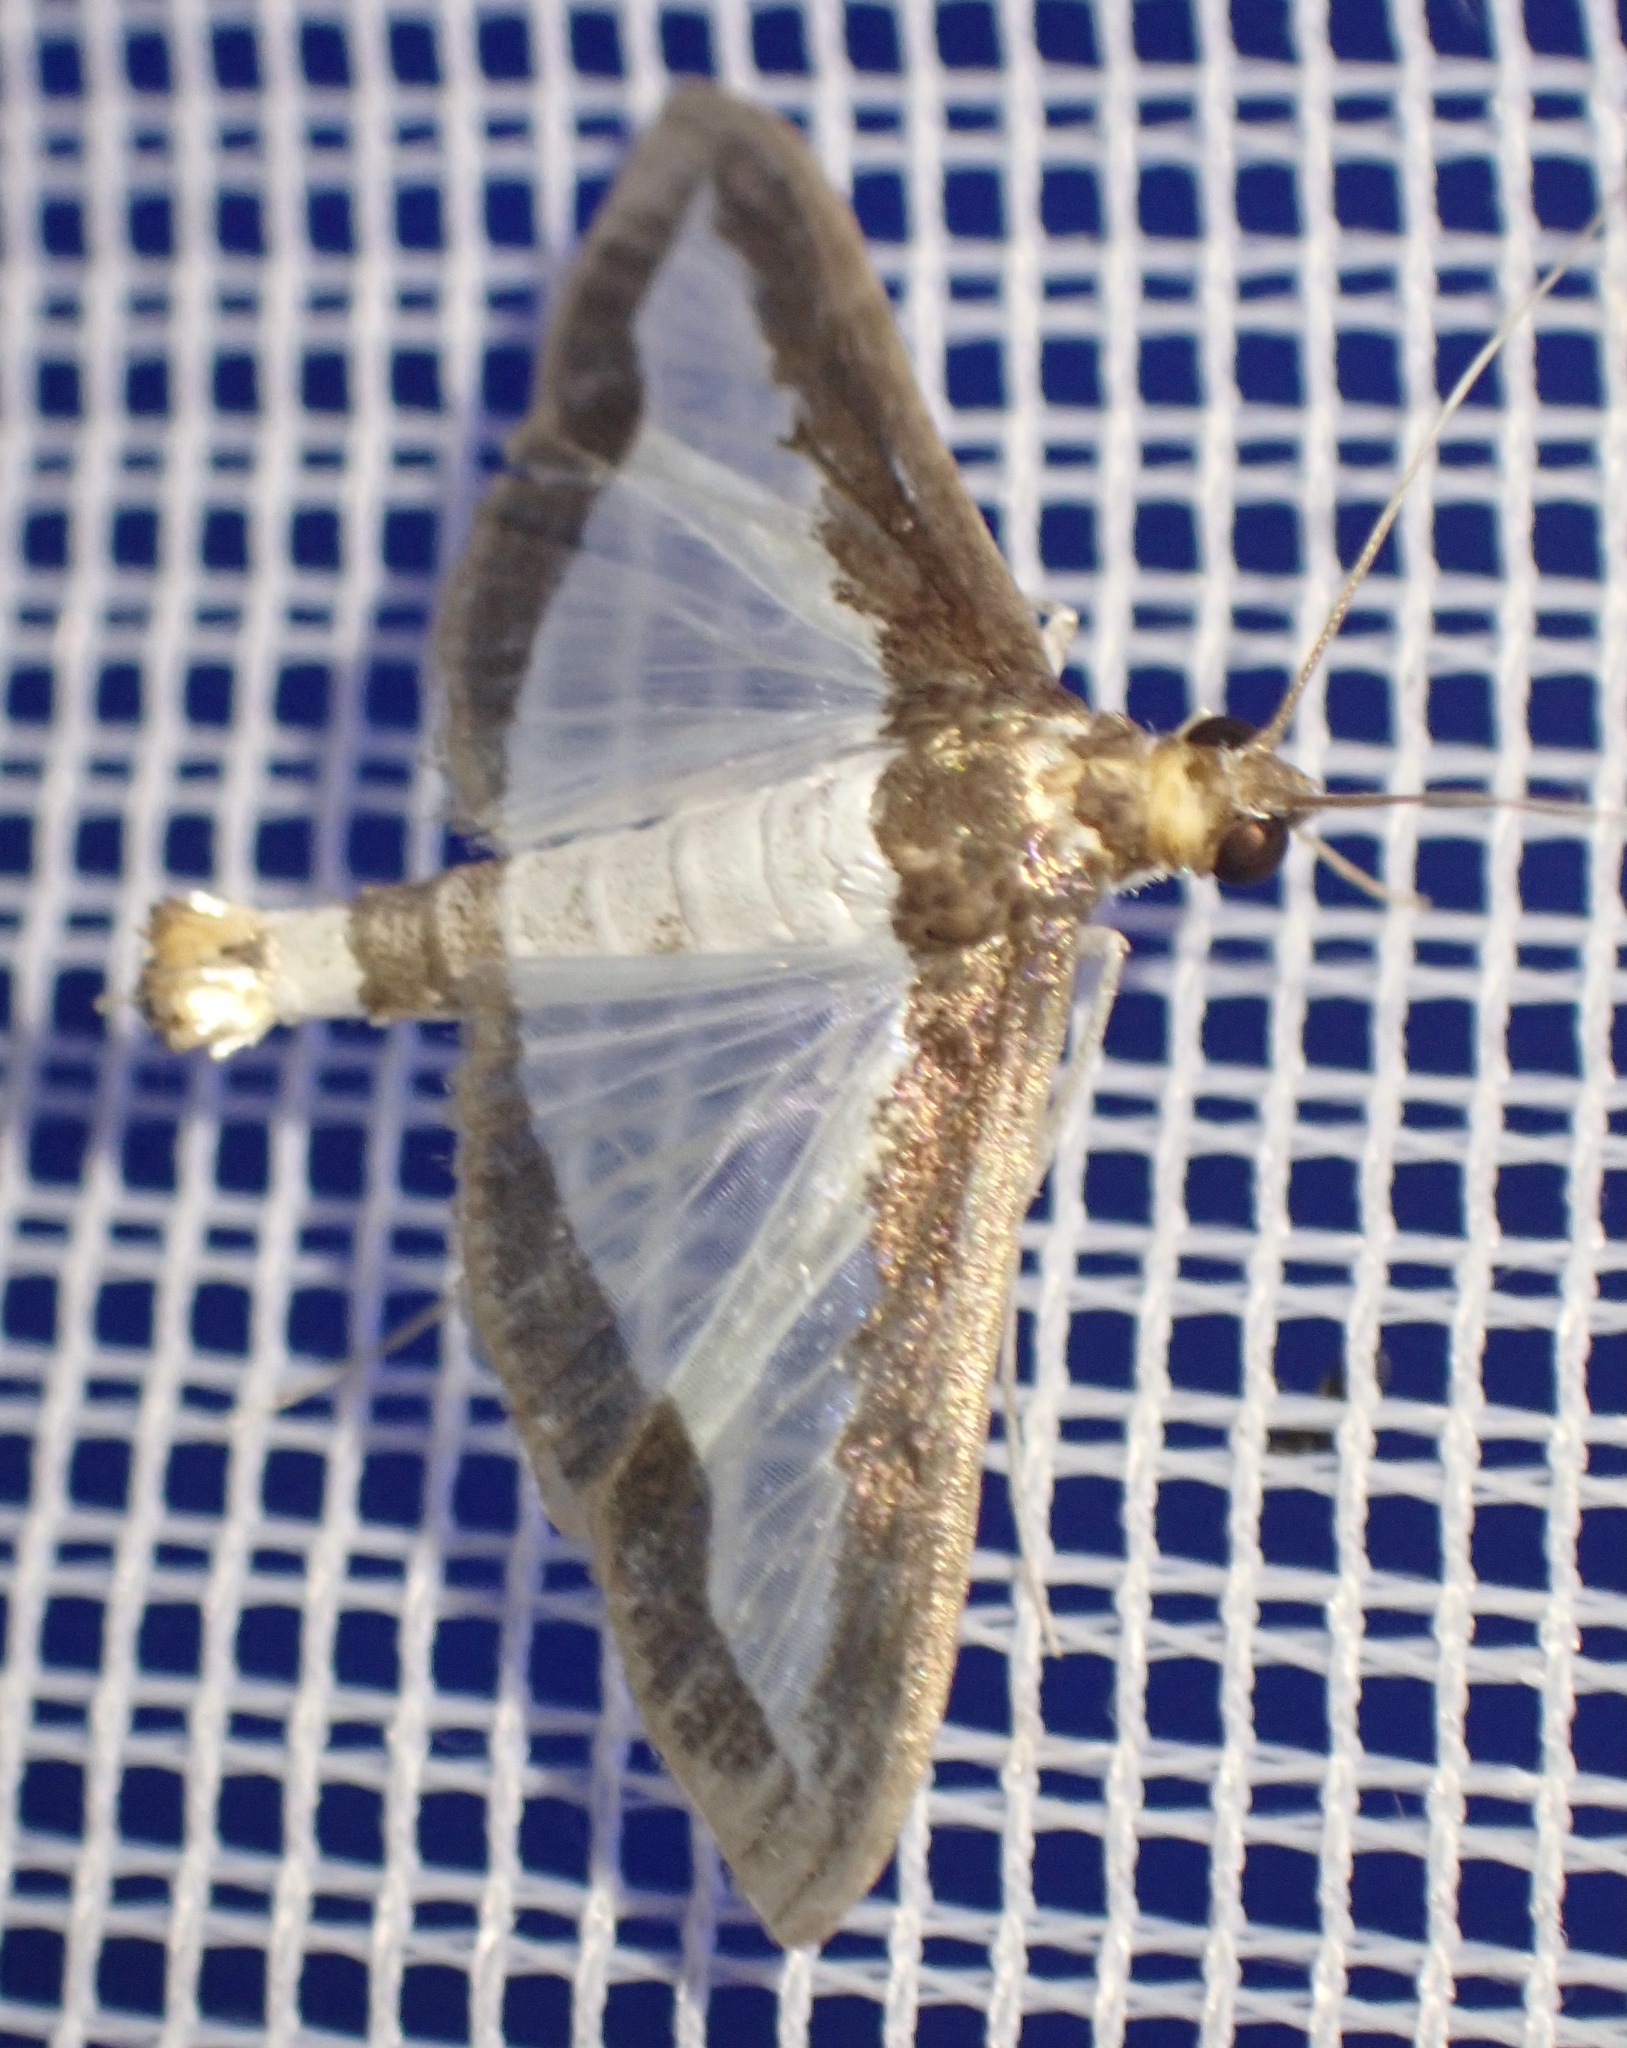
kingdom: Animalia
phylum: Arthropoda
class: Insecta
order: Lepidoptera
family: Crambidae
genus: Diaphania
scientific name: Diaphania indica
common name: Cucumber moth
